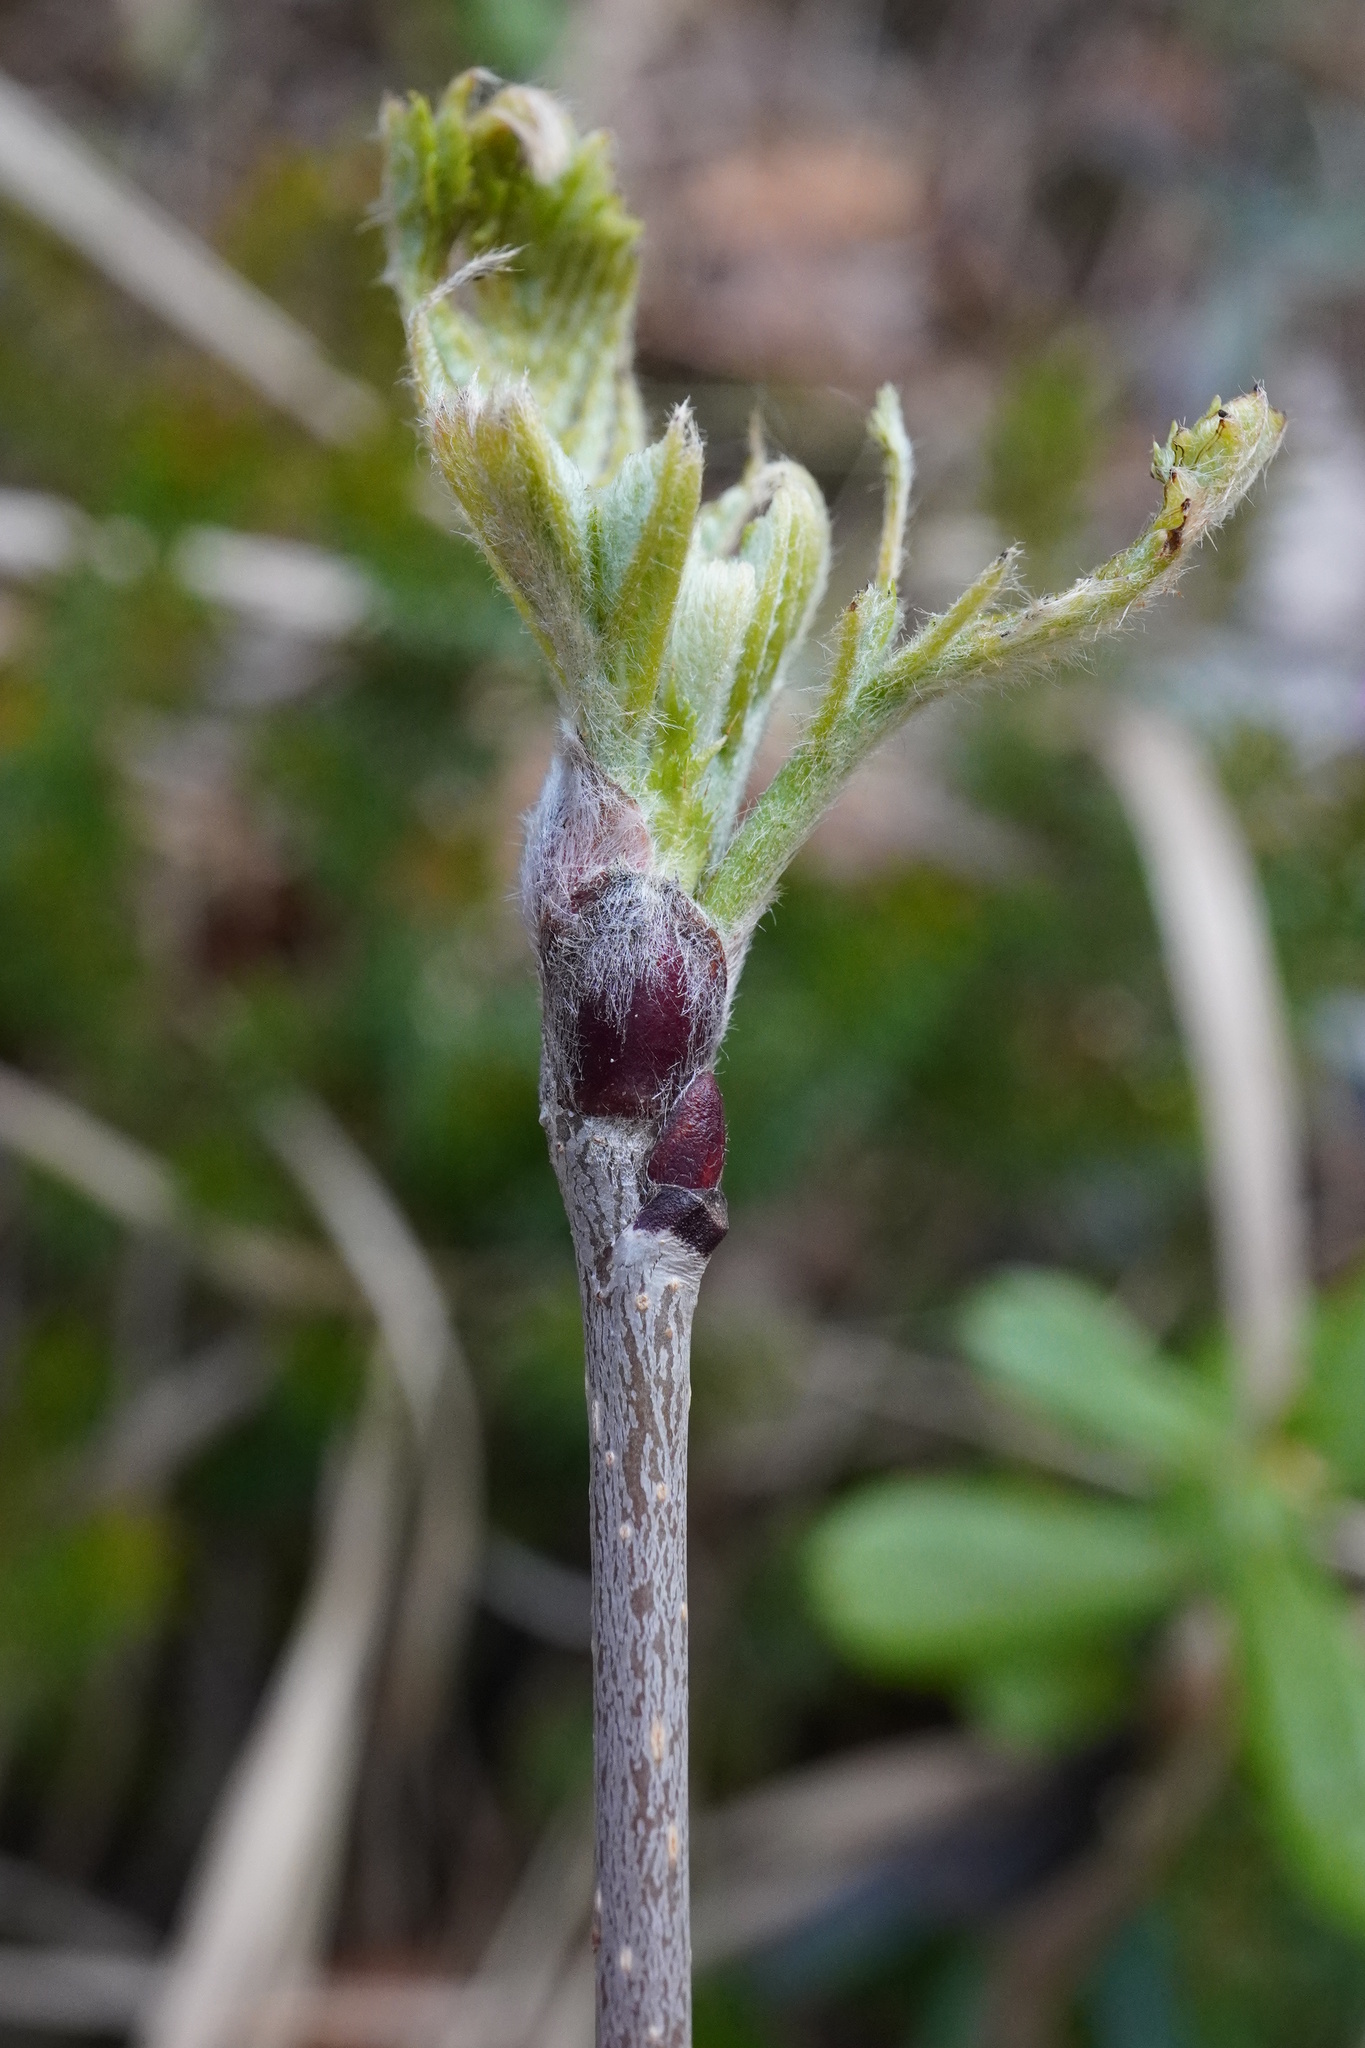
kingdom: Plantae
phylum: Tracheophyta
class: Magnoliopsida
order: Rosales
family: Rosaceae
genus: Sorbus
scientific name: Sorbus aucuparia
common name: Rowan
